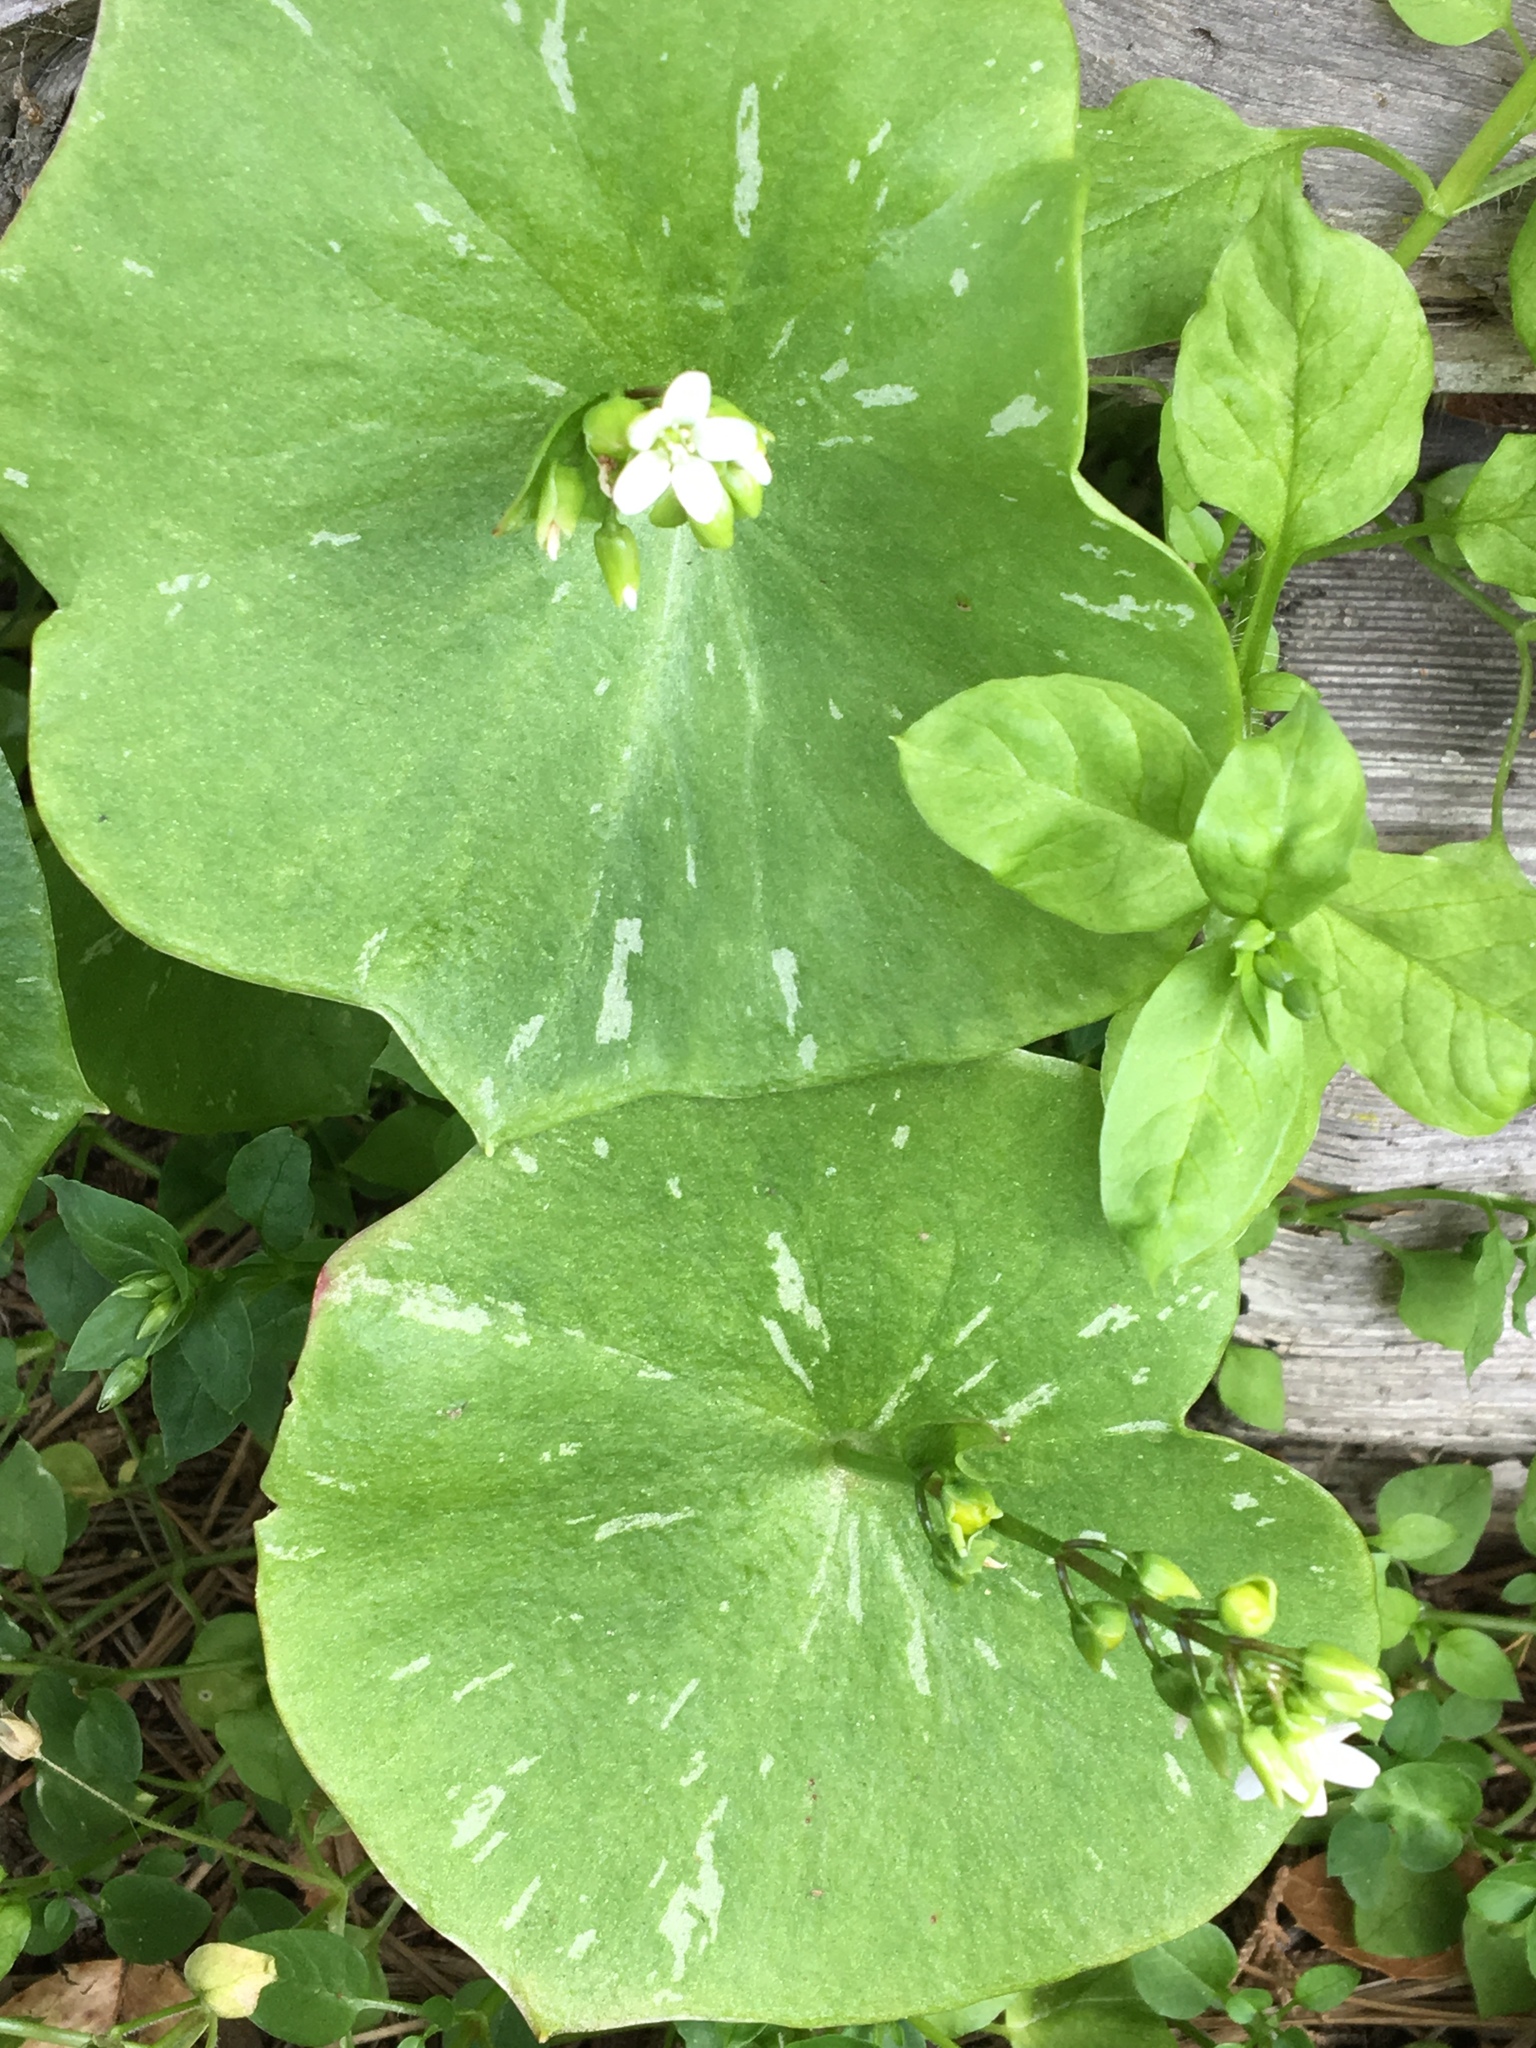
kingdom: Plantae
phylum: Tracheophyta
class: Magnoliopsida
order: Caryophyllales
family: Montiaceae
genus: Claytonia
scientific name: Claytonia perfoliata
